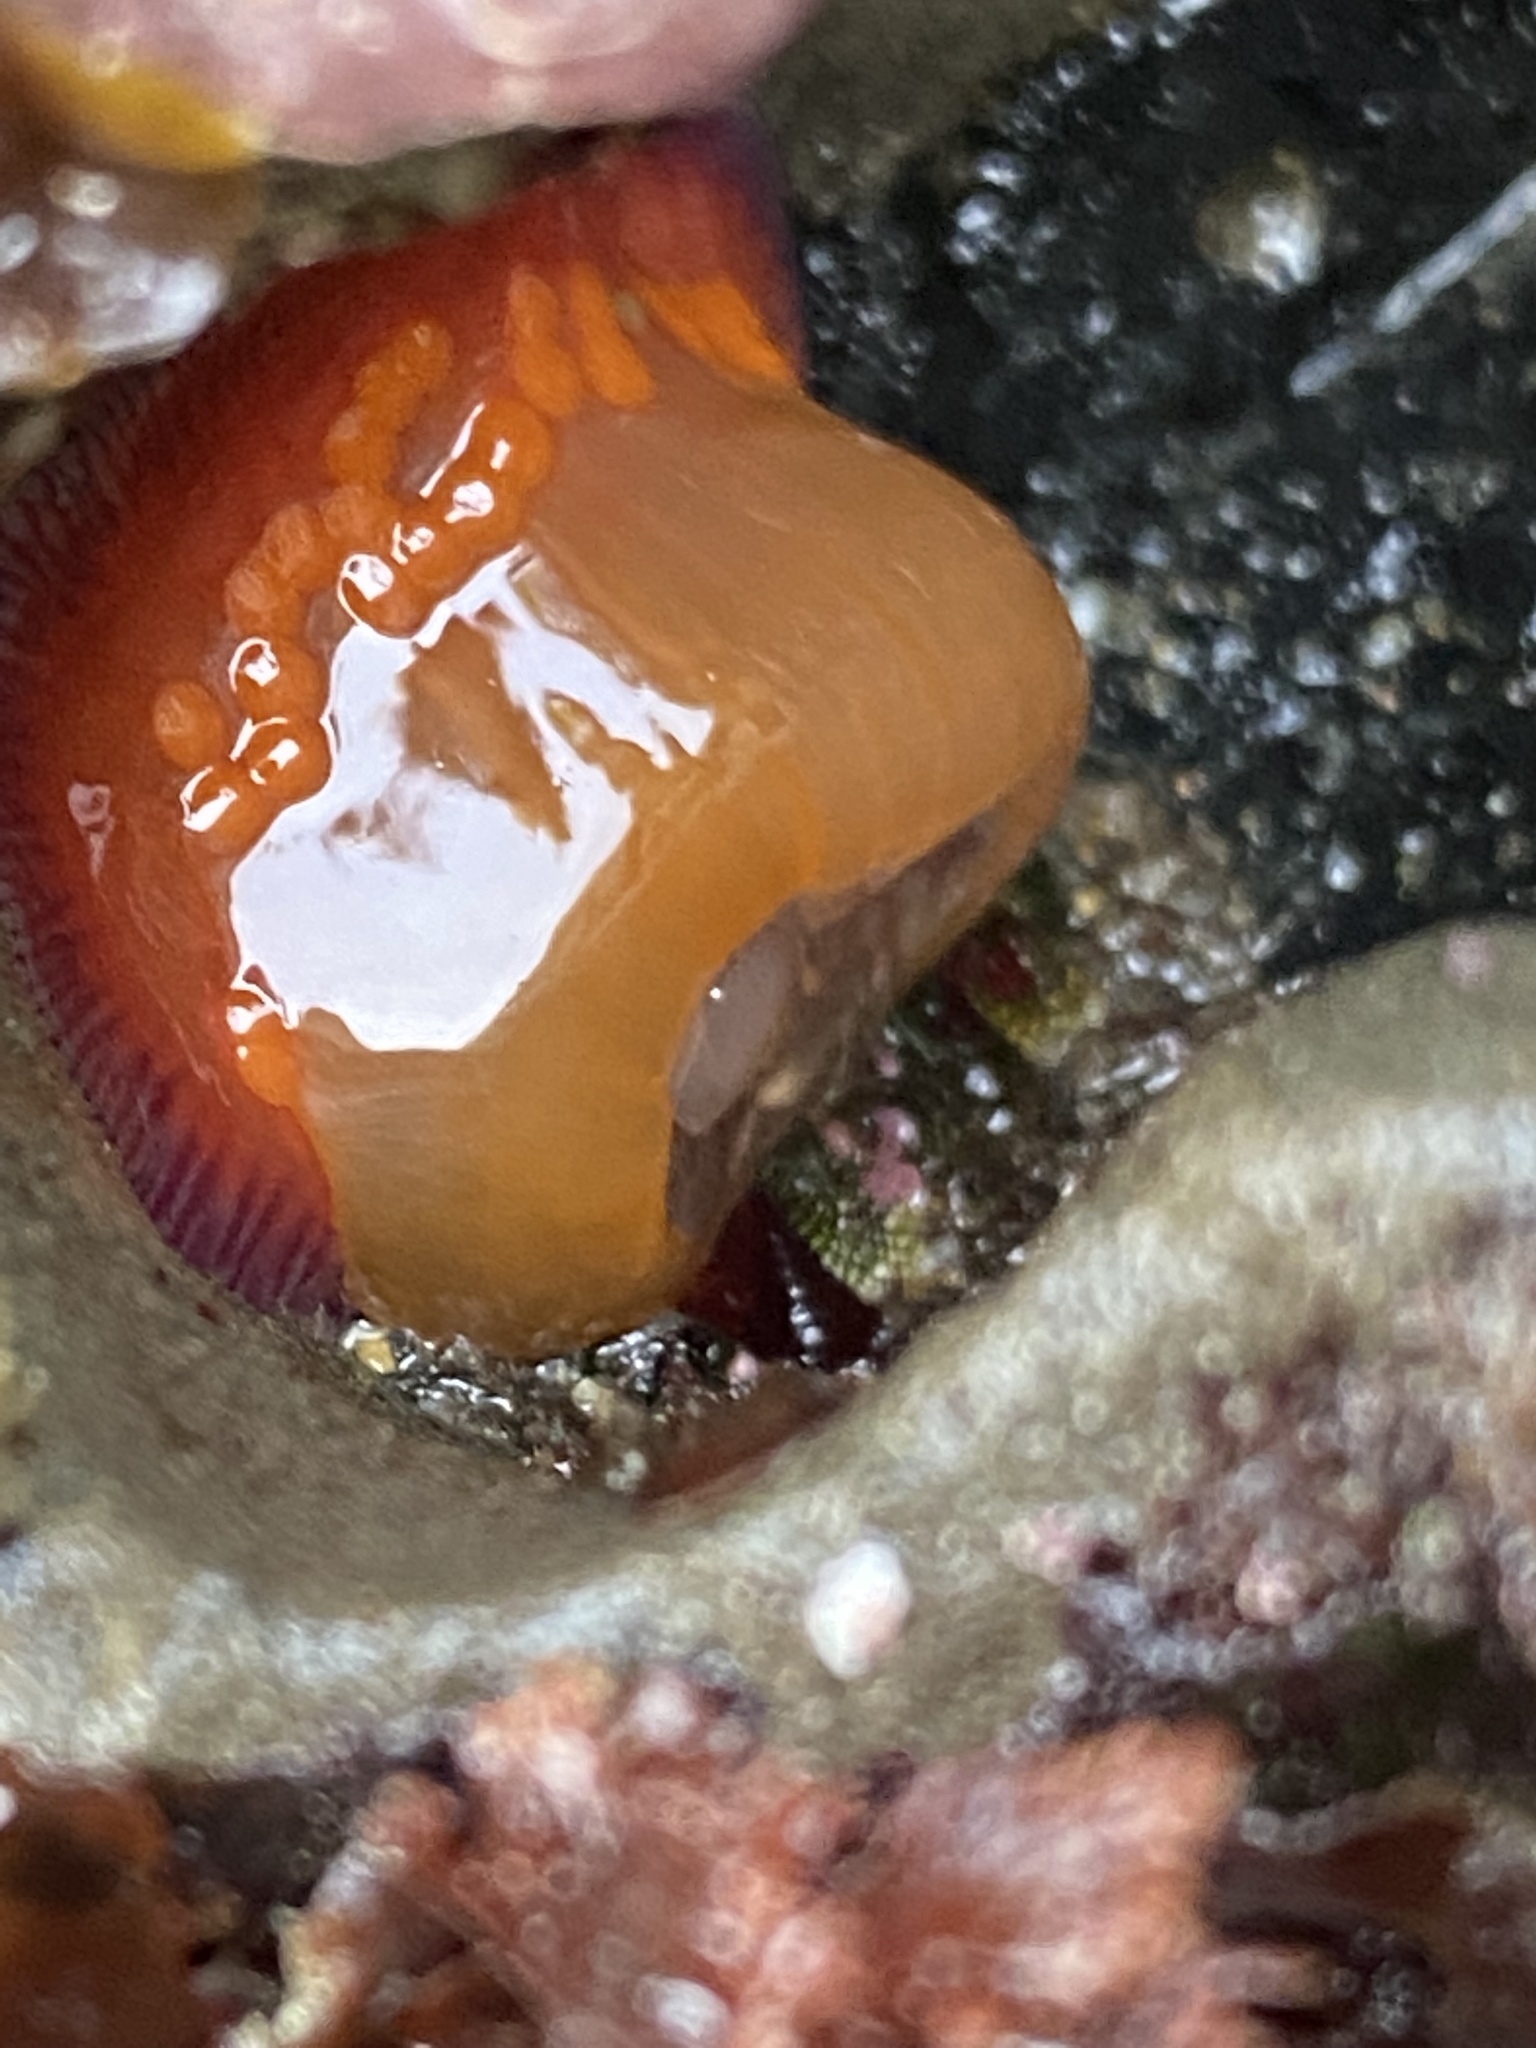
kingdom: Animalia
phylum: Cnidaria
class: Anthozoa
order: Actiniaria
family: Actiniidae
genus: Epiactis
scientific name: Epiactis lisbethae
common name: Giant brooding anemone
